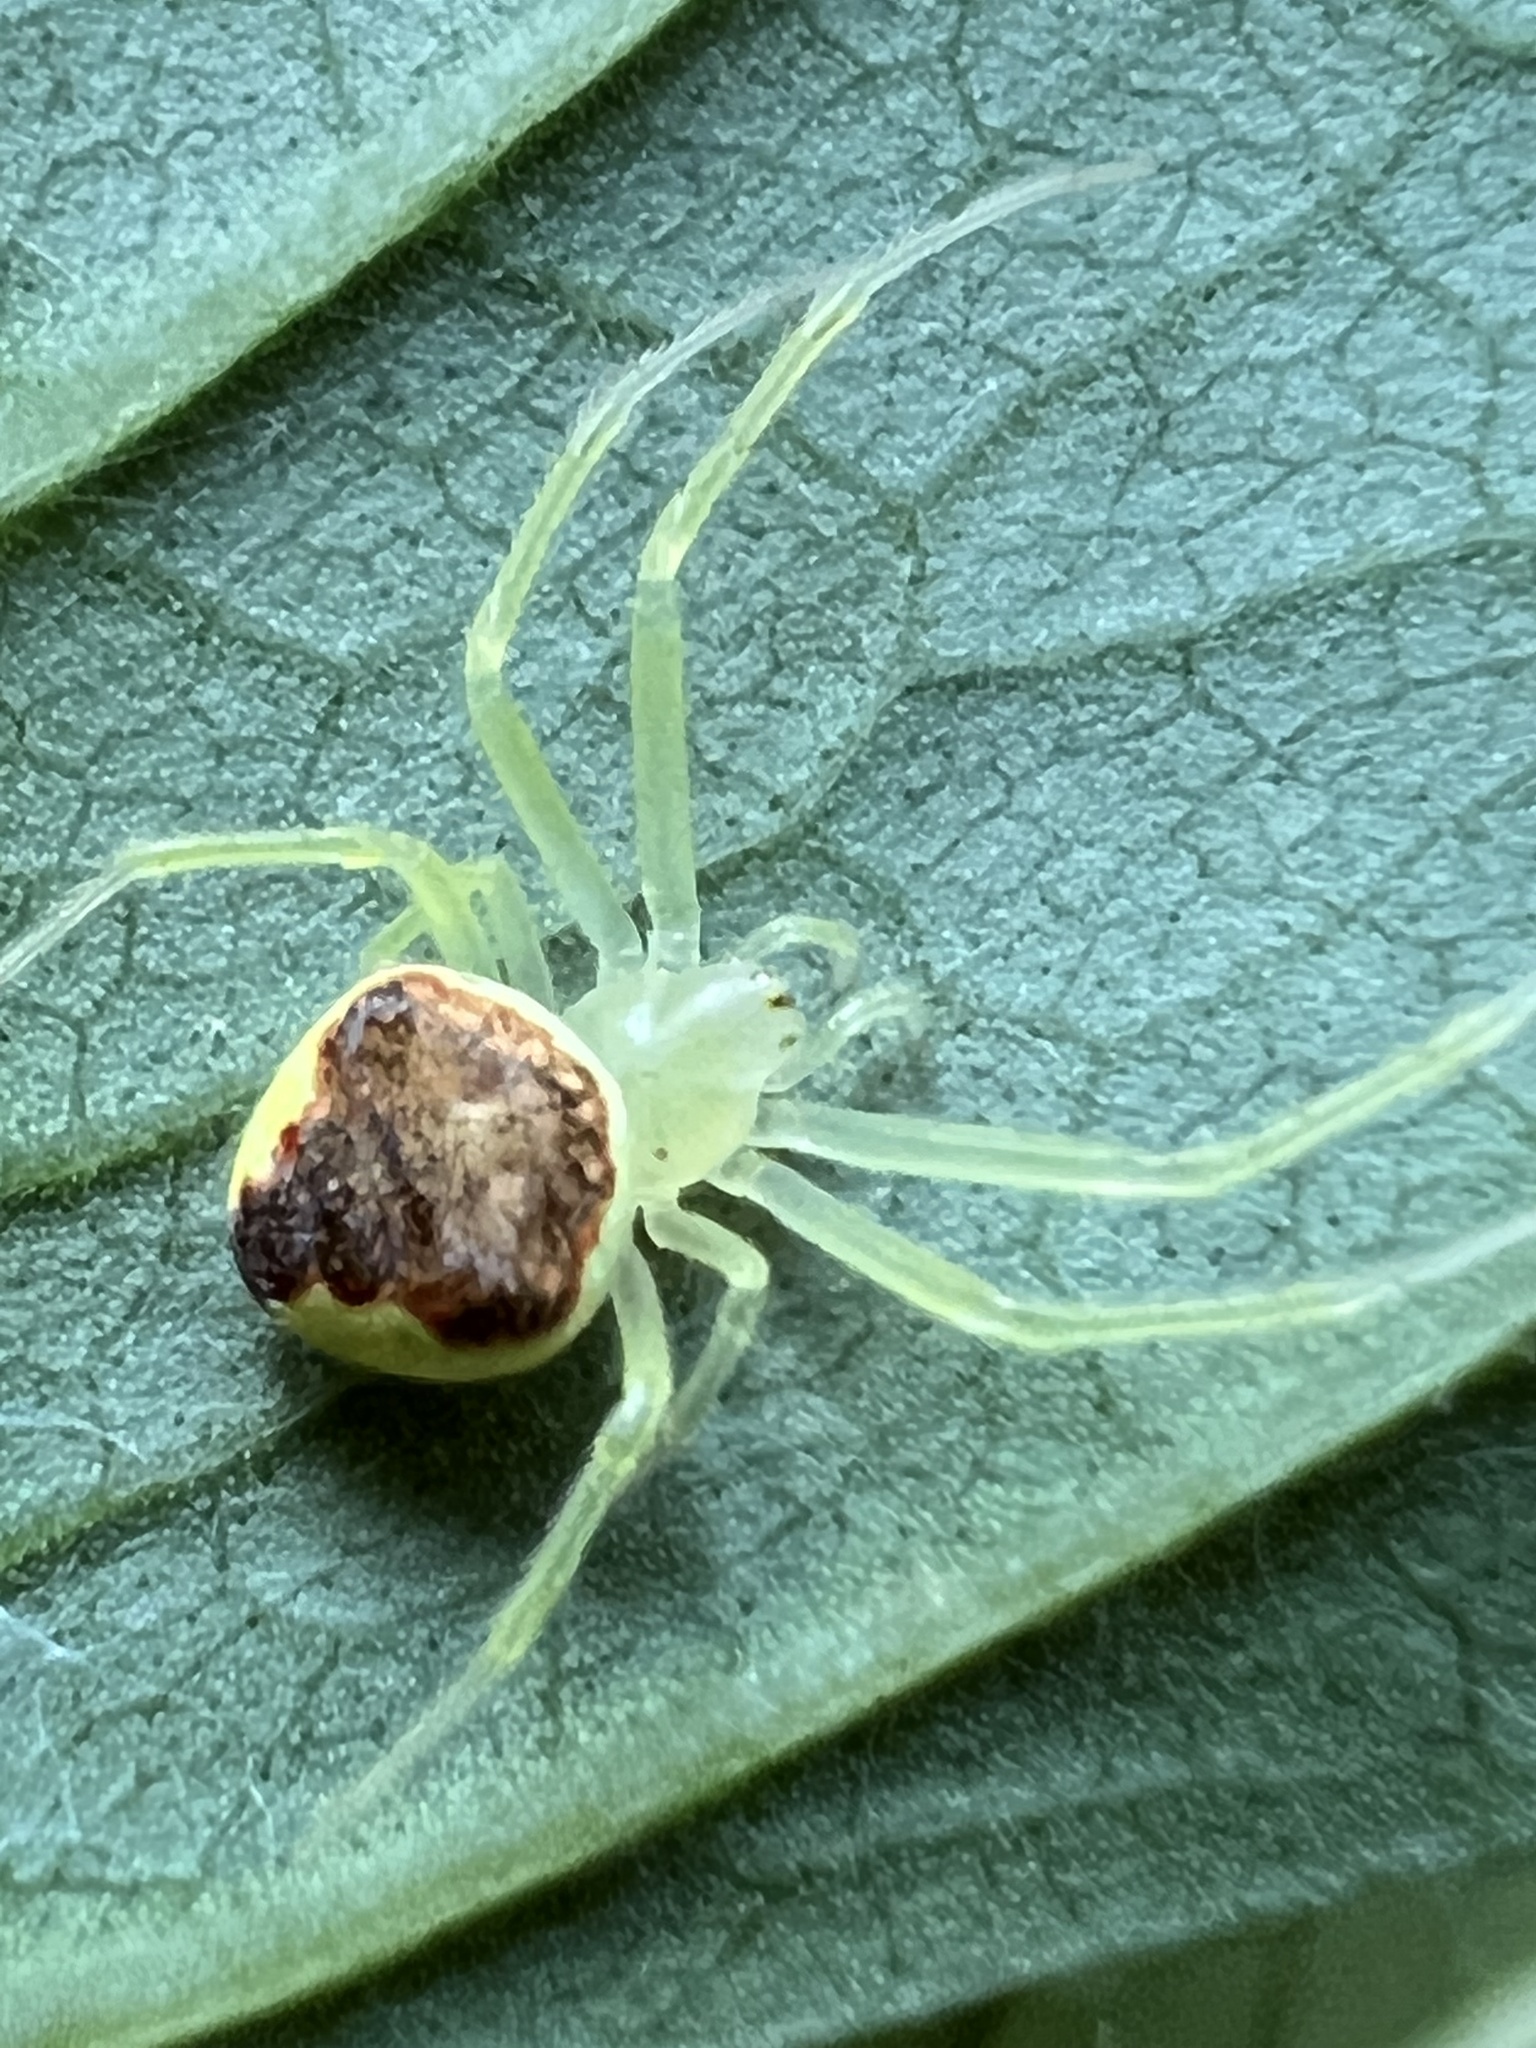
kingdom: Animalia
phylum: Arthropoda
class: Arachnida
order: Araneae
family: Araneidae
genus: Araneus
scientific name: Araneus alboventris
